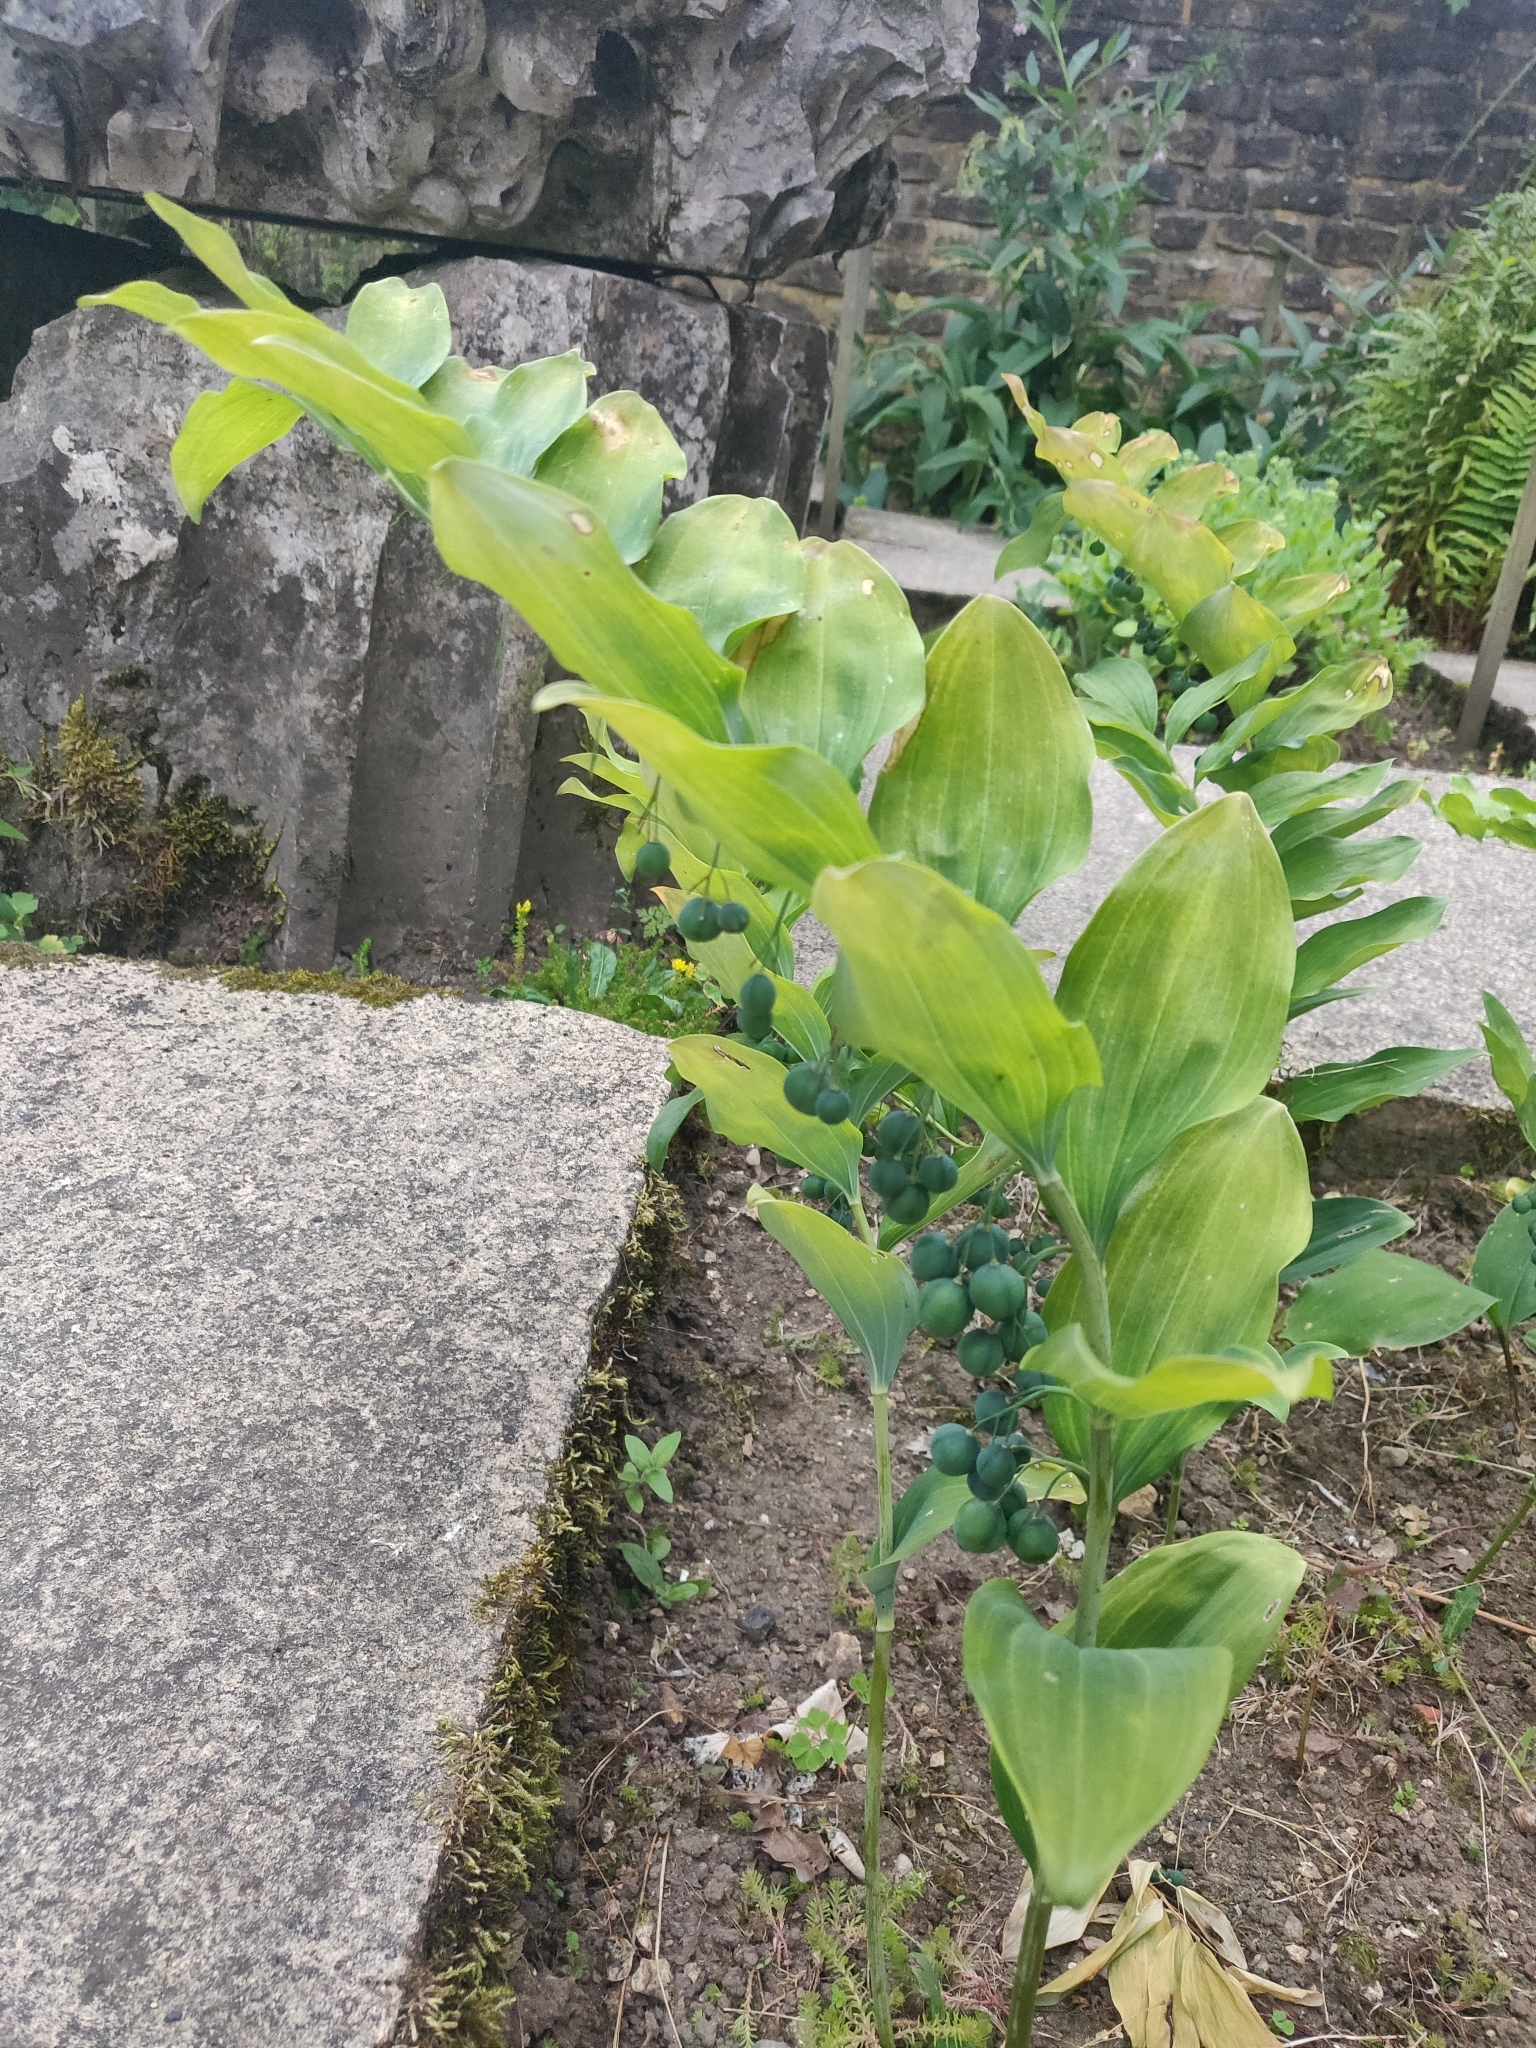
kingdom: Plantae
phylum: Tracheophyta
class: Liliopsida
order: Asparagales
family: Asparagaceae
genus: Polygonatum
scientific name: Polygonatum multiflorum
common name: Solomon's-seal
